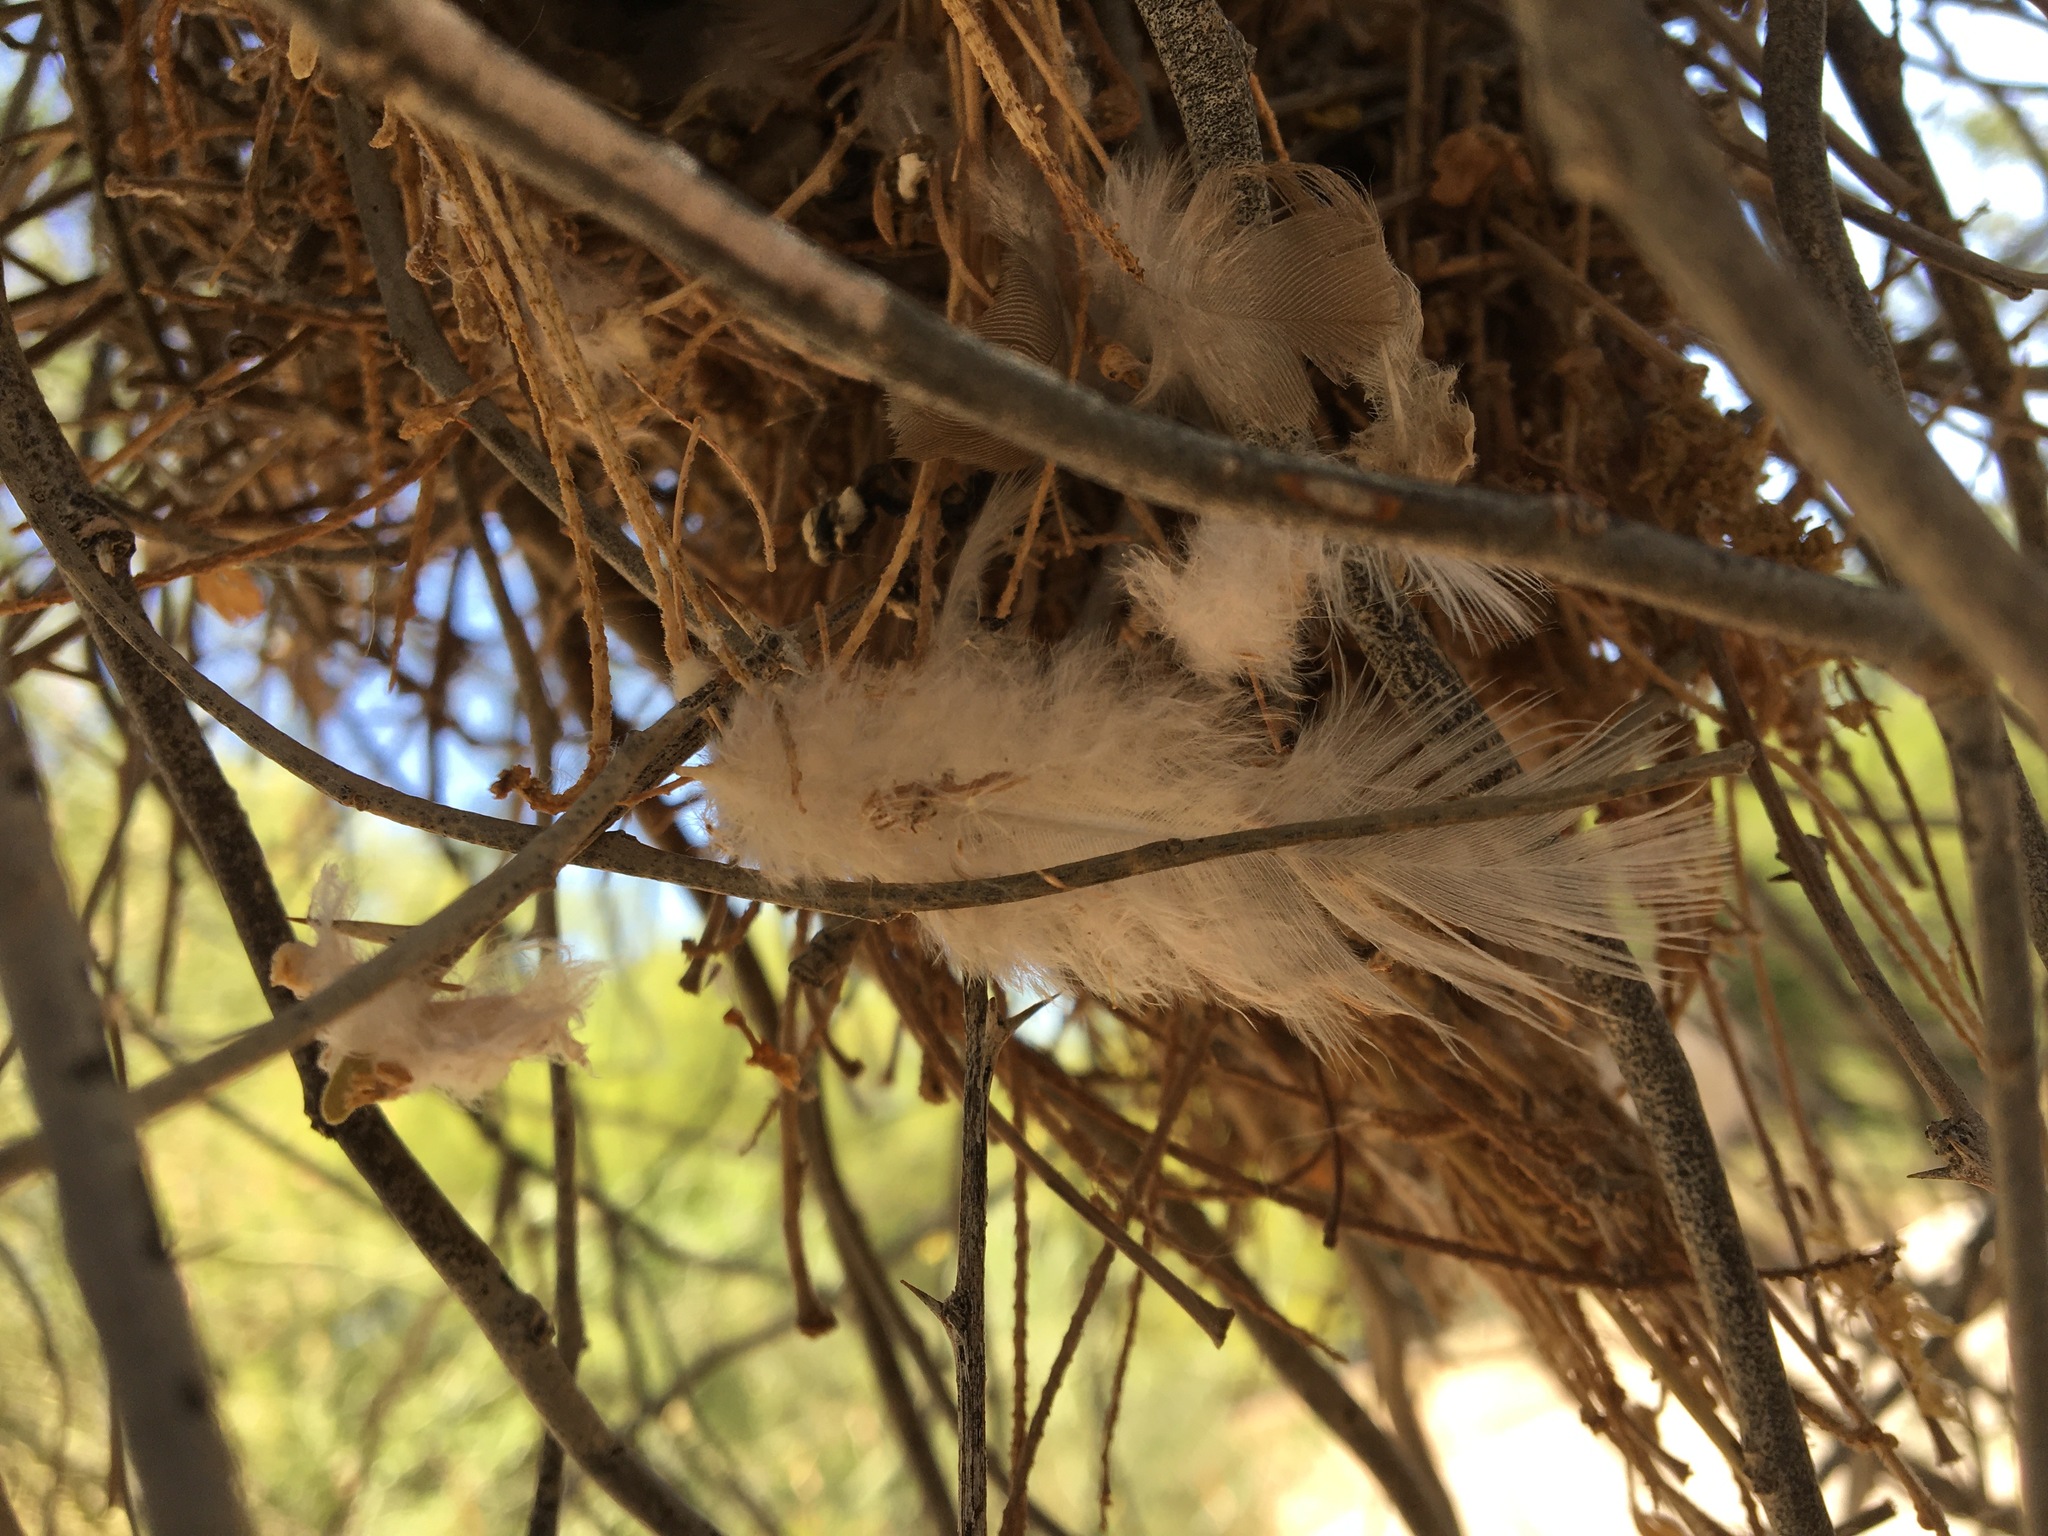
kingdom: Animalia
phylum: Chordata
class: Aves
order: Passeriformes
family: Remizidae
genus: Auriparus
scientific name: Auriparus flaviceps
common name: Verdin
